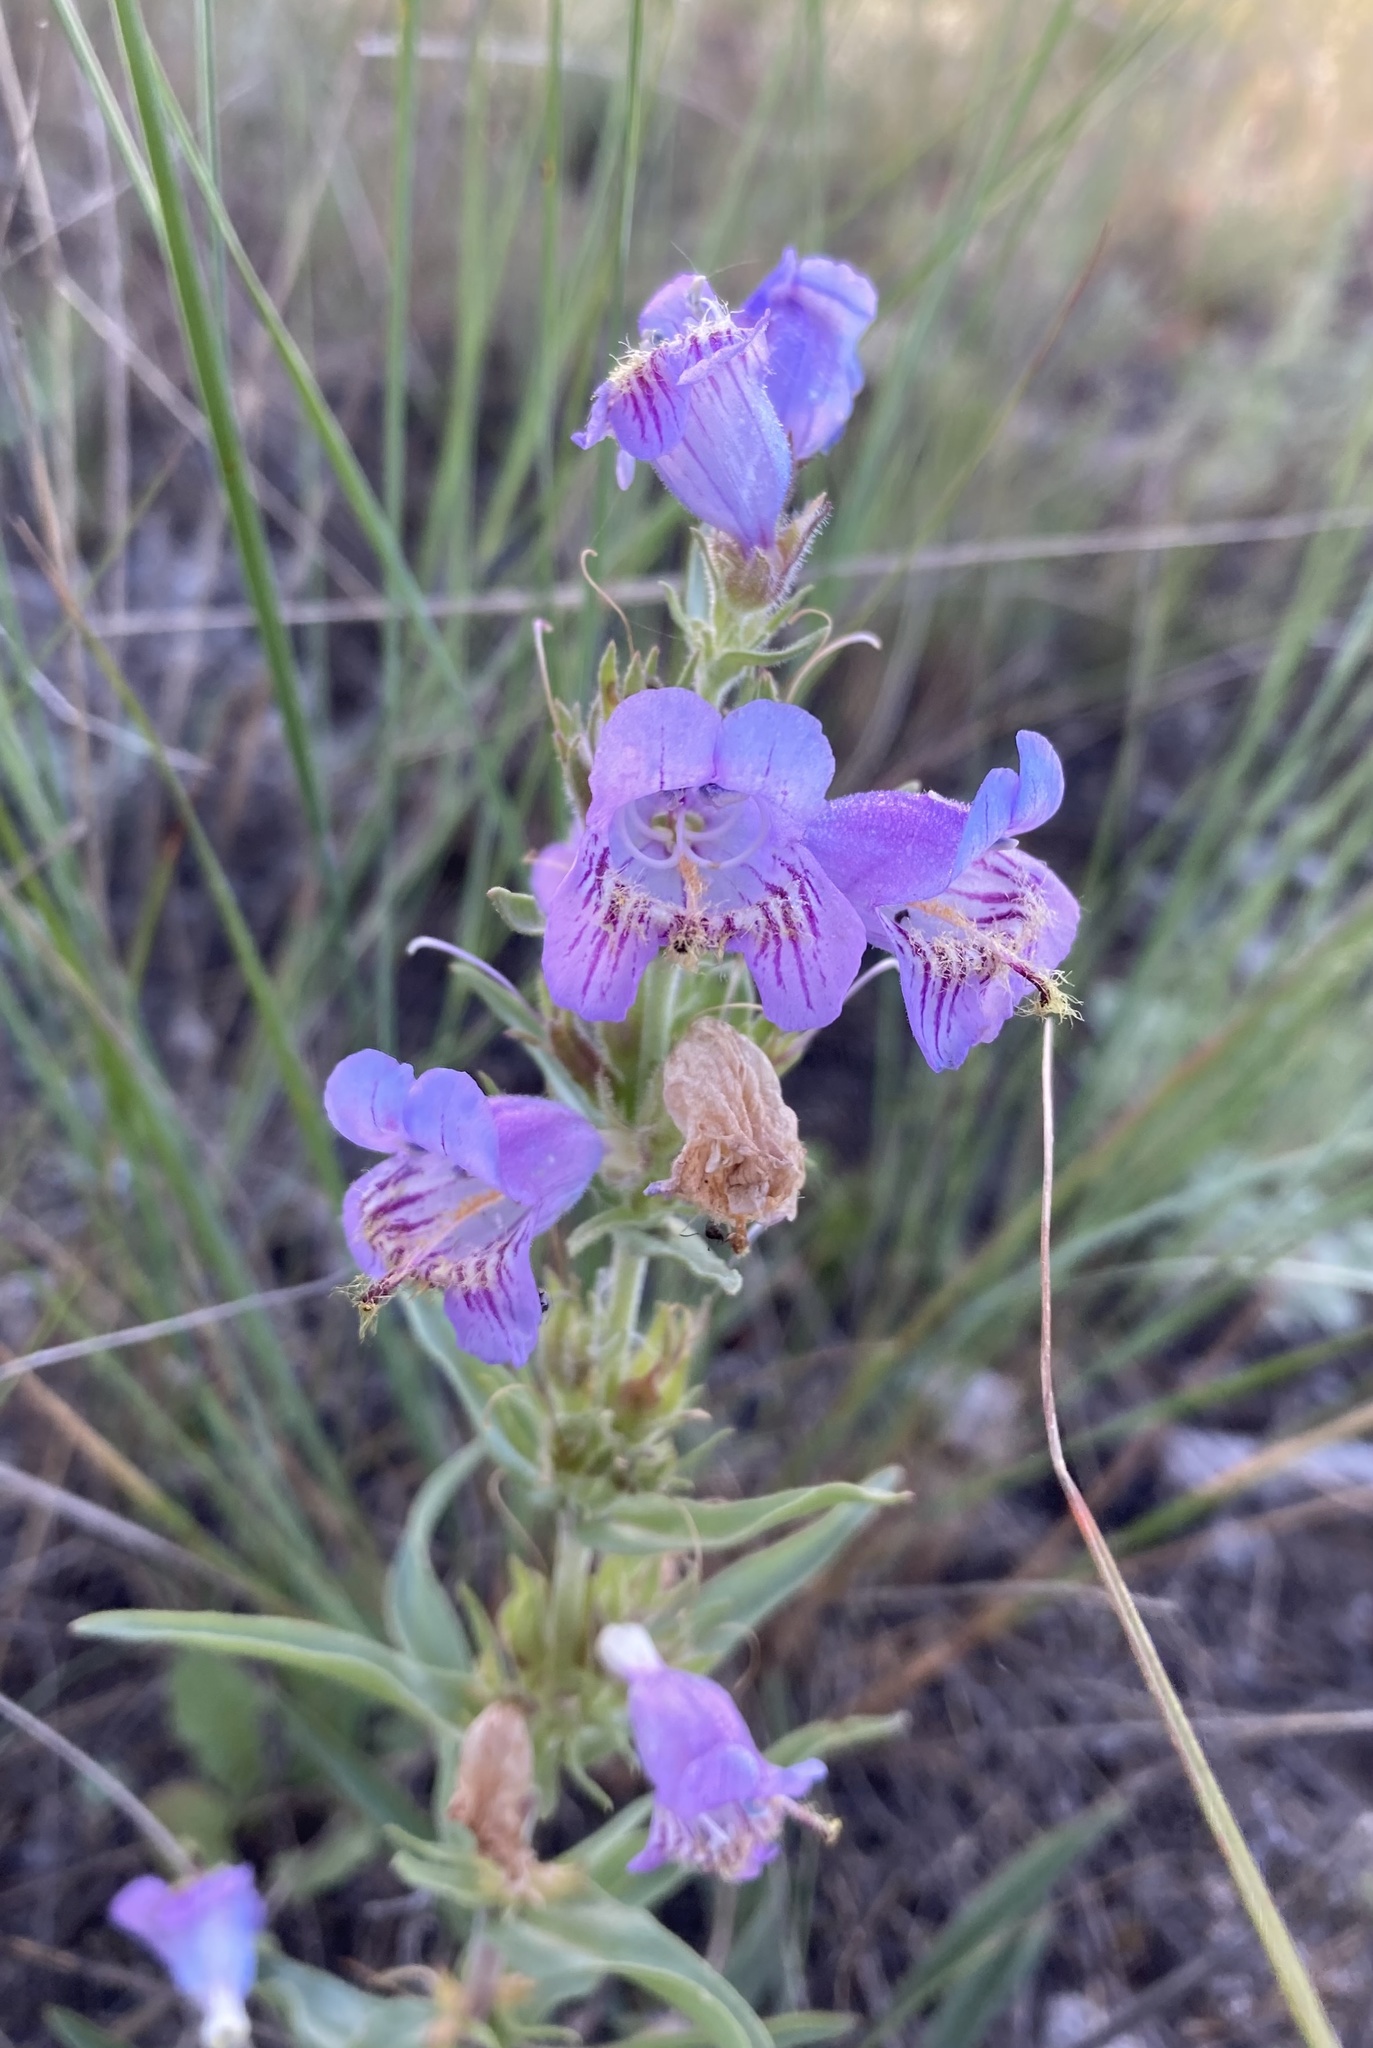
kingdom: Plantae
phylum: Tracheophyta
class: Magnoliopsida
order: Lamiales
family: Plantaginaceae
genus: Penstemon
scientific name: Penstemon eriantherus
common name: Crested beardtongue
